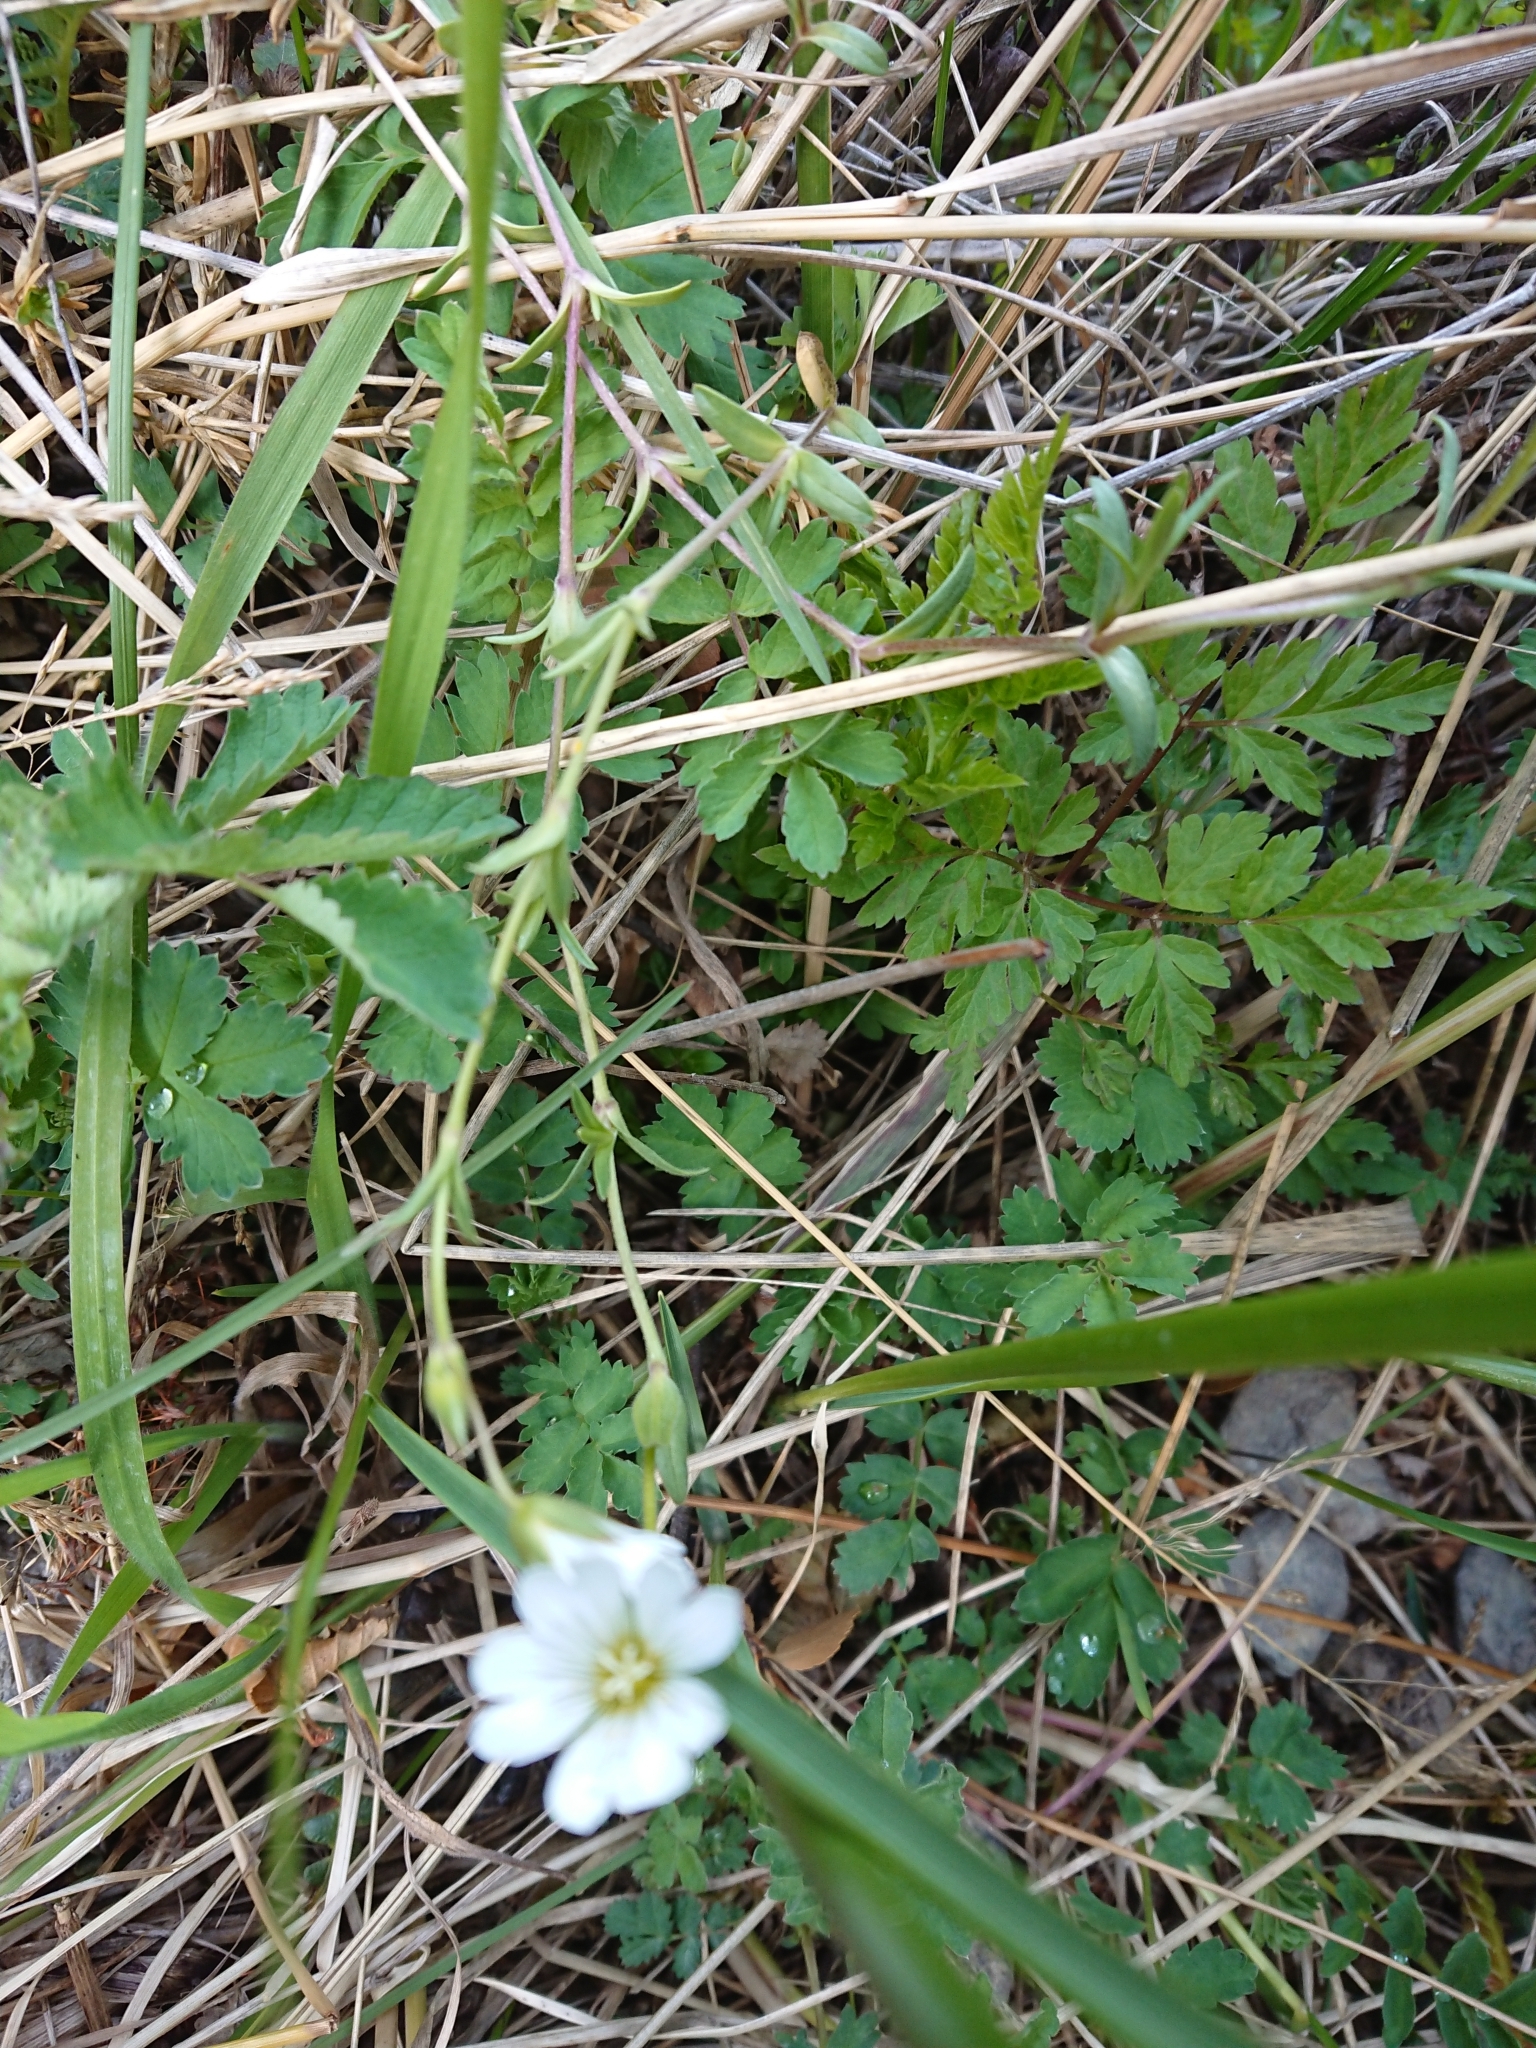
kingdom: Plantae
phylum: Tracheophyta
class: Magnoliopsida
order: Caryophyllales
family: Caryophyllaceae
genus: Cerastium
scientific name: Cerastium arvense
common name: Field mouse-ear
